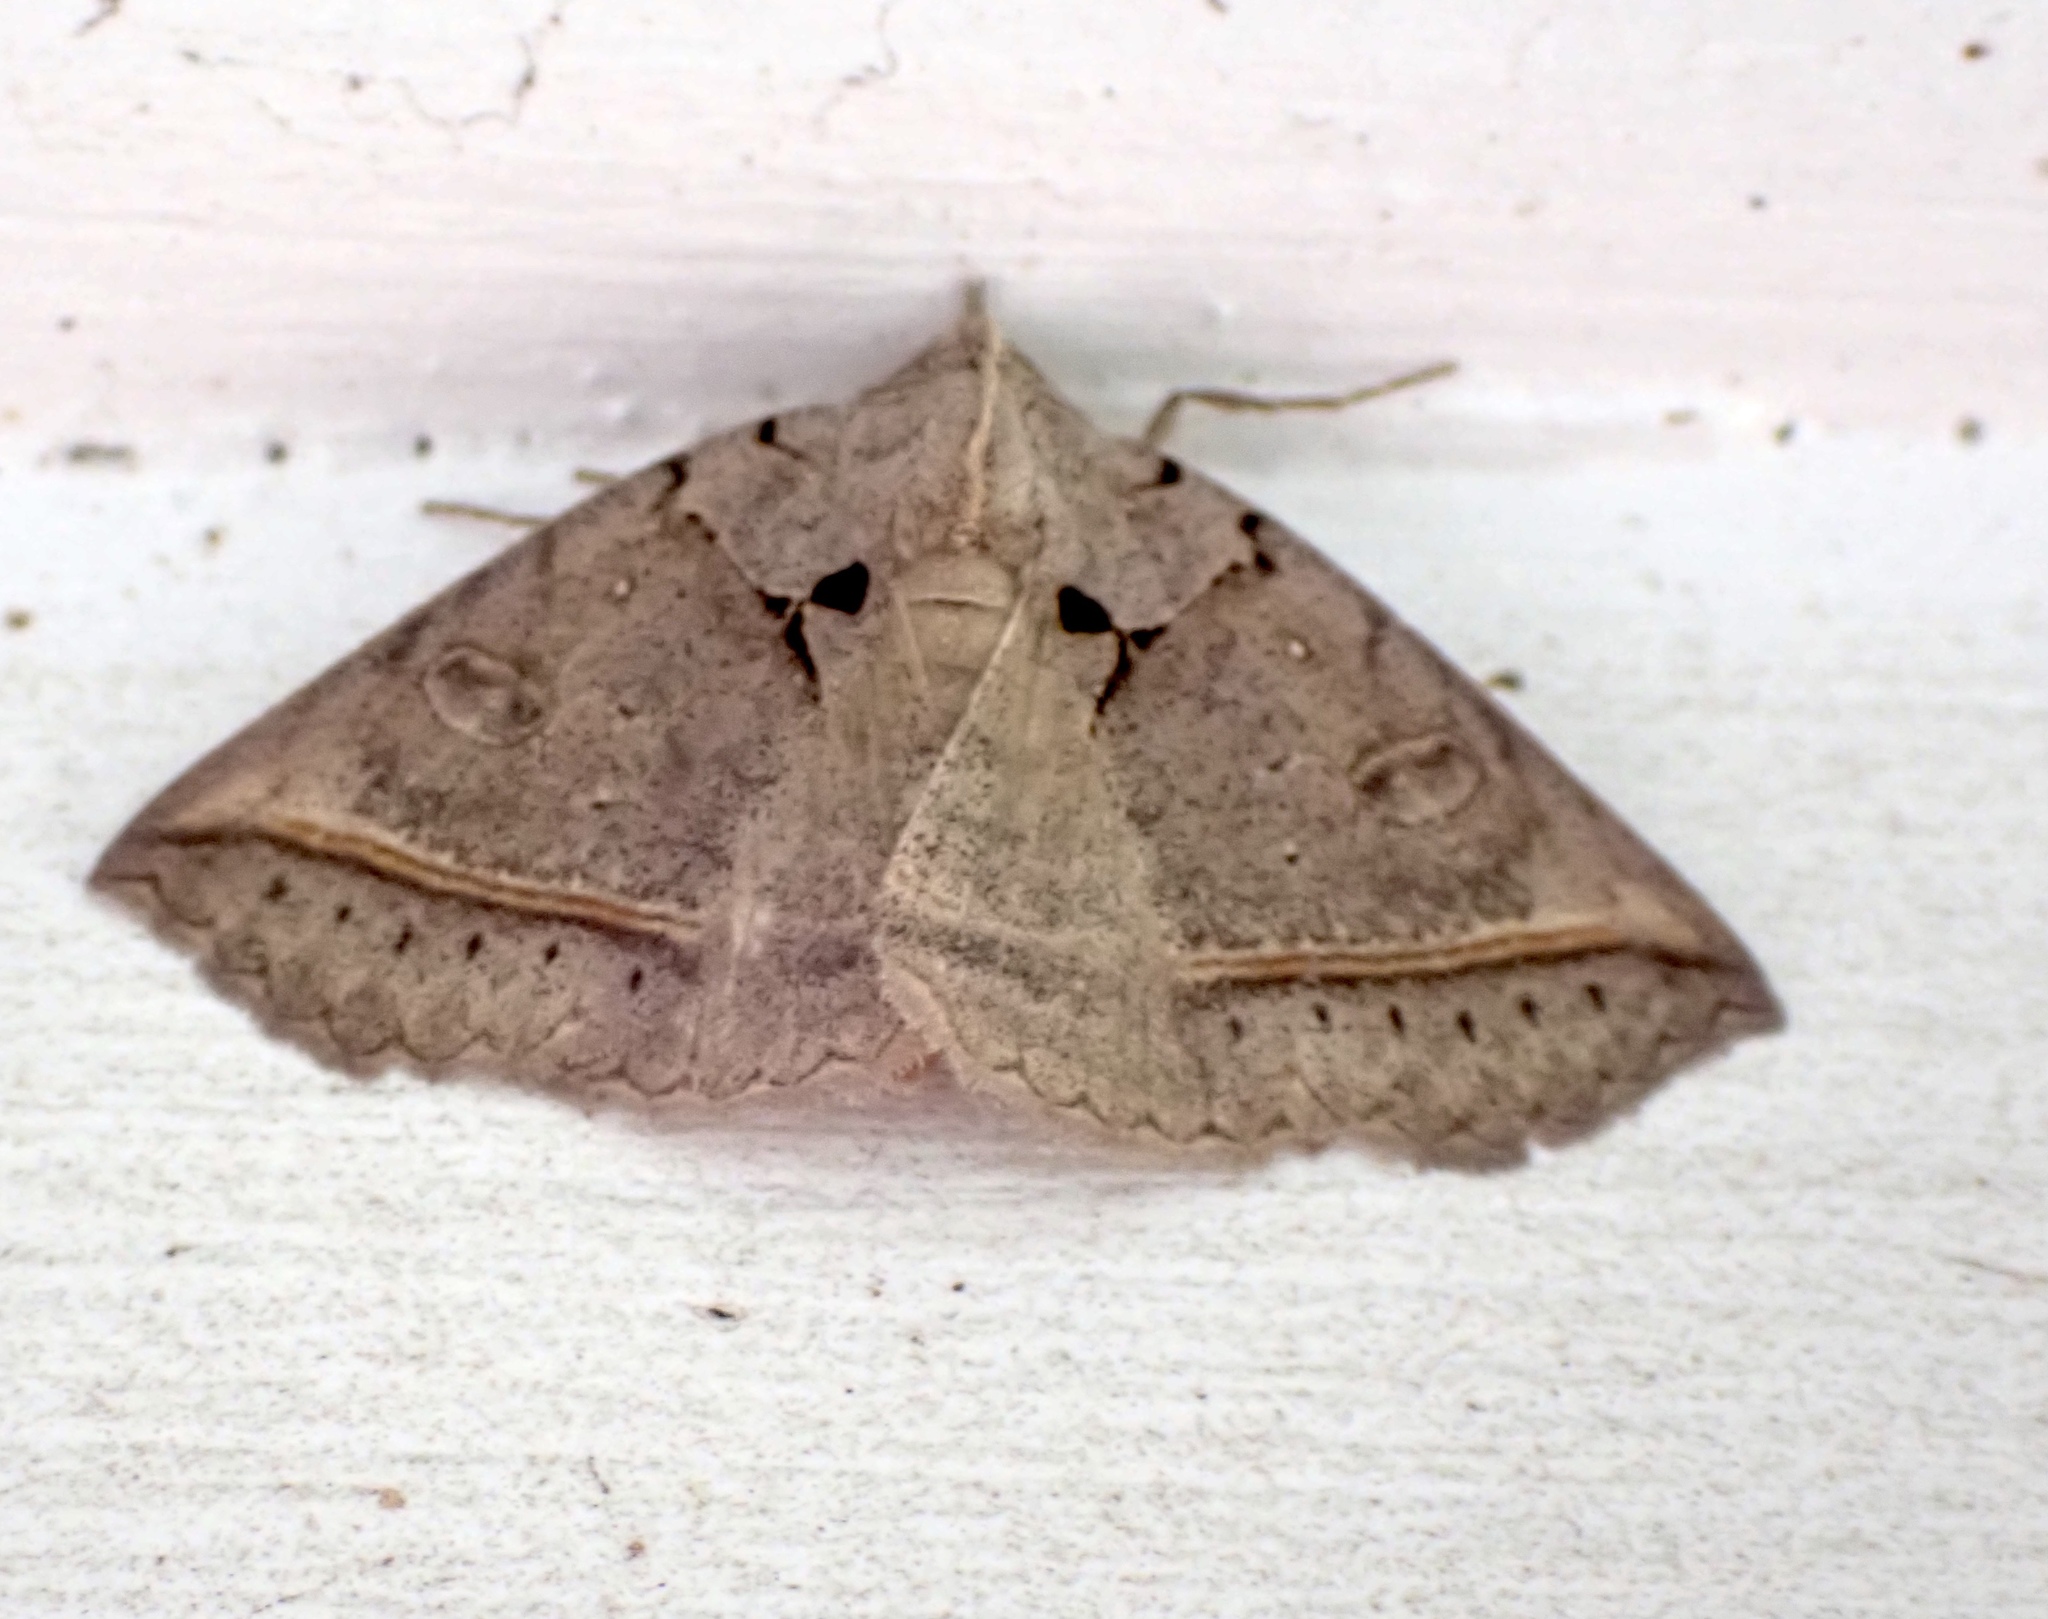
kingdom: Animalia
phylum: Arthropoda
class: Insecta
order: Lepidoptera
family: Erebidae
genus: Celiptera
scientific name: Celiptera frustulum
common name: Black bit moth
